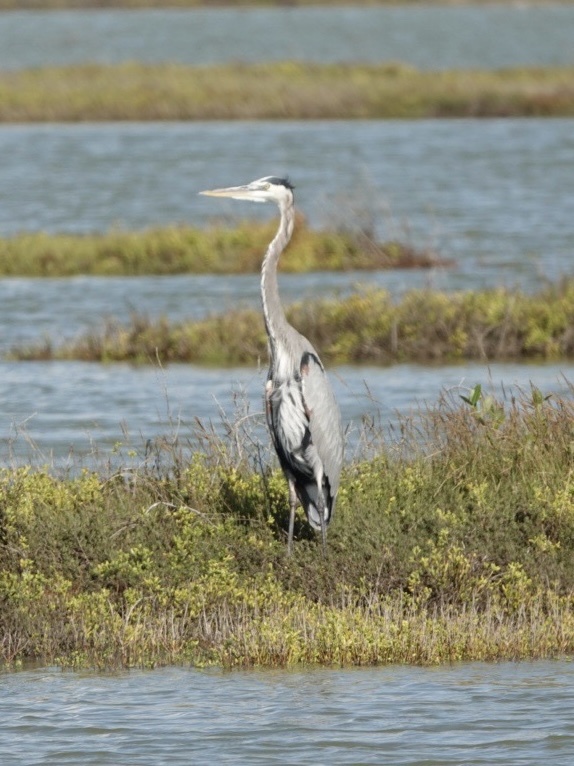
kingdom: Animalia
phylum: Chordata
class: Aves
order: Pelecaniformes
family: Ardeidae
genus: Ardea
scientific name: Ardea herodias
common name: Great blue heron
